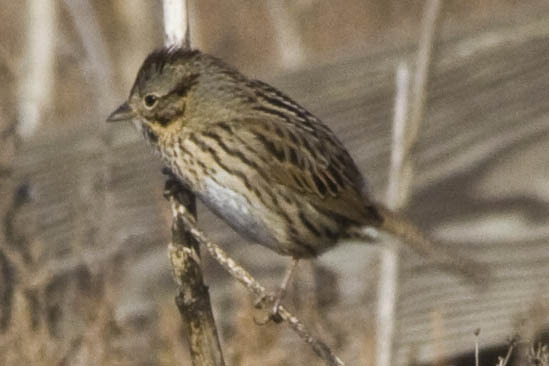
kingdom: Animalia
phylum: Chordata
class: Aves
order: Passeriformes
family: Passerellidae
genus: Melospiza
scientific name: Melospiza lincolnii
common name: Lincoln's sparrow
